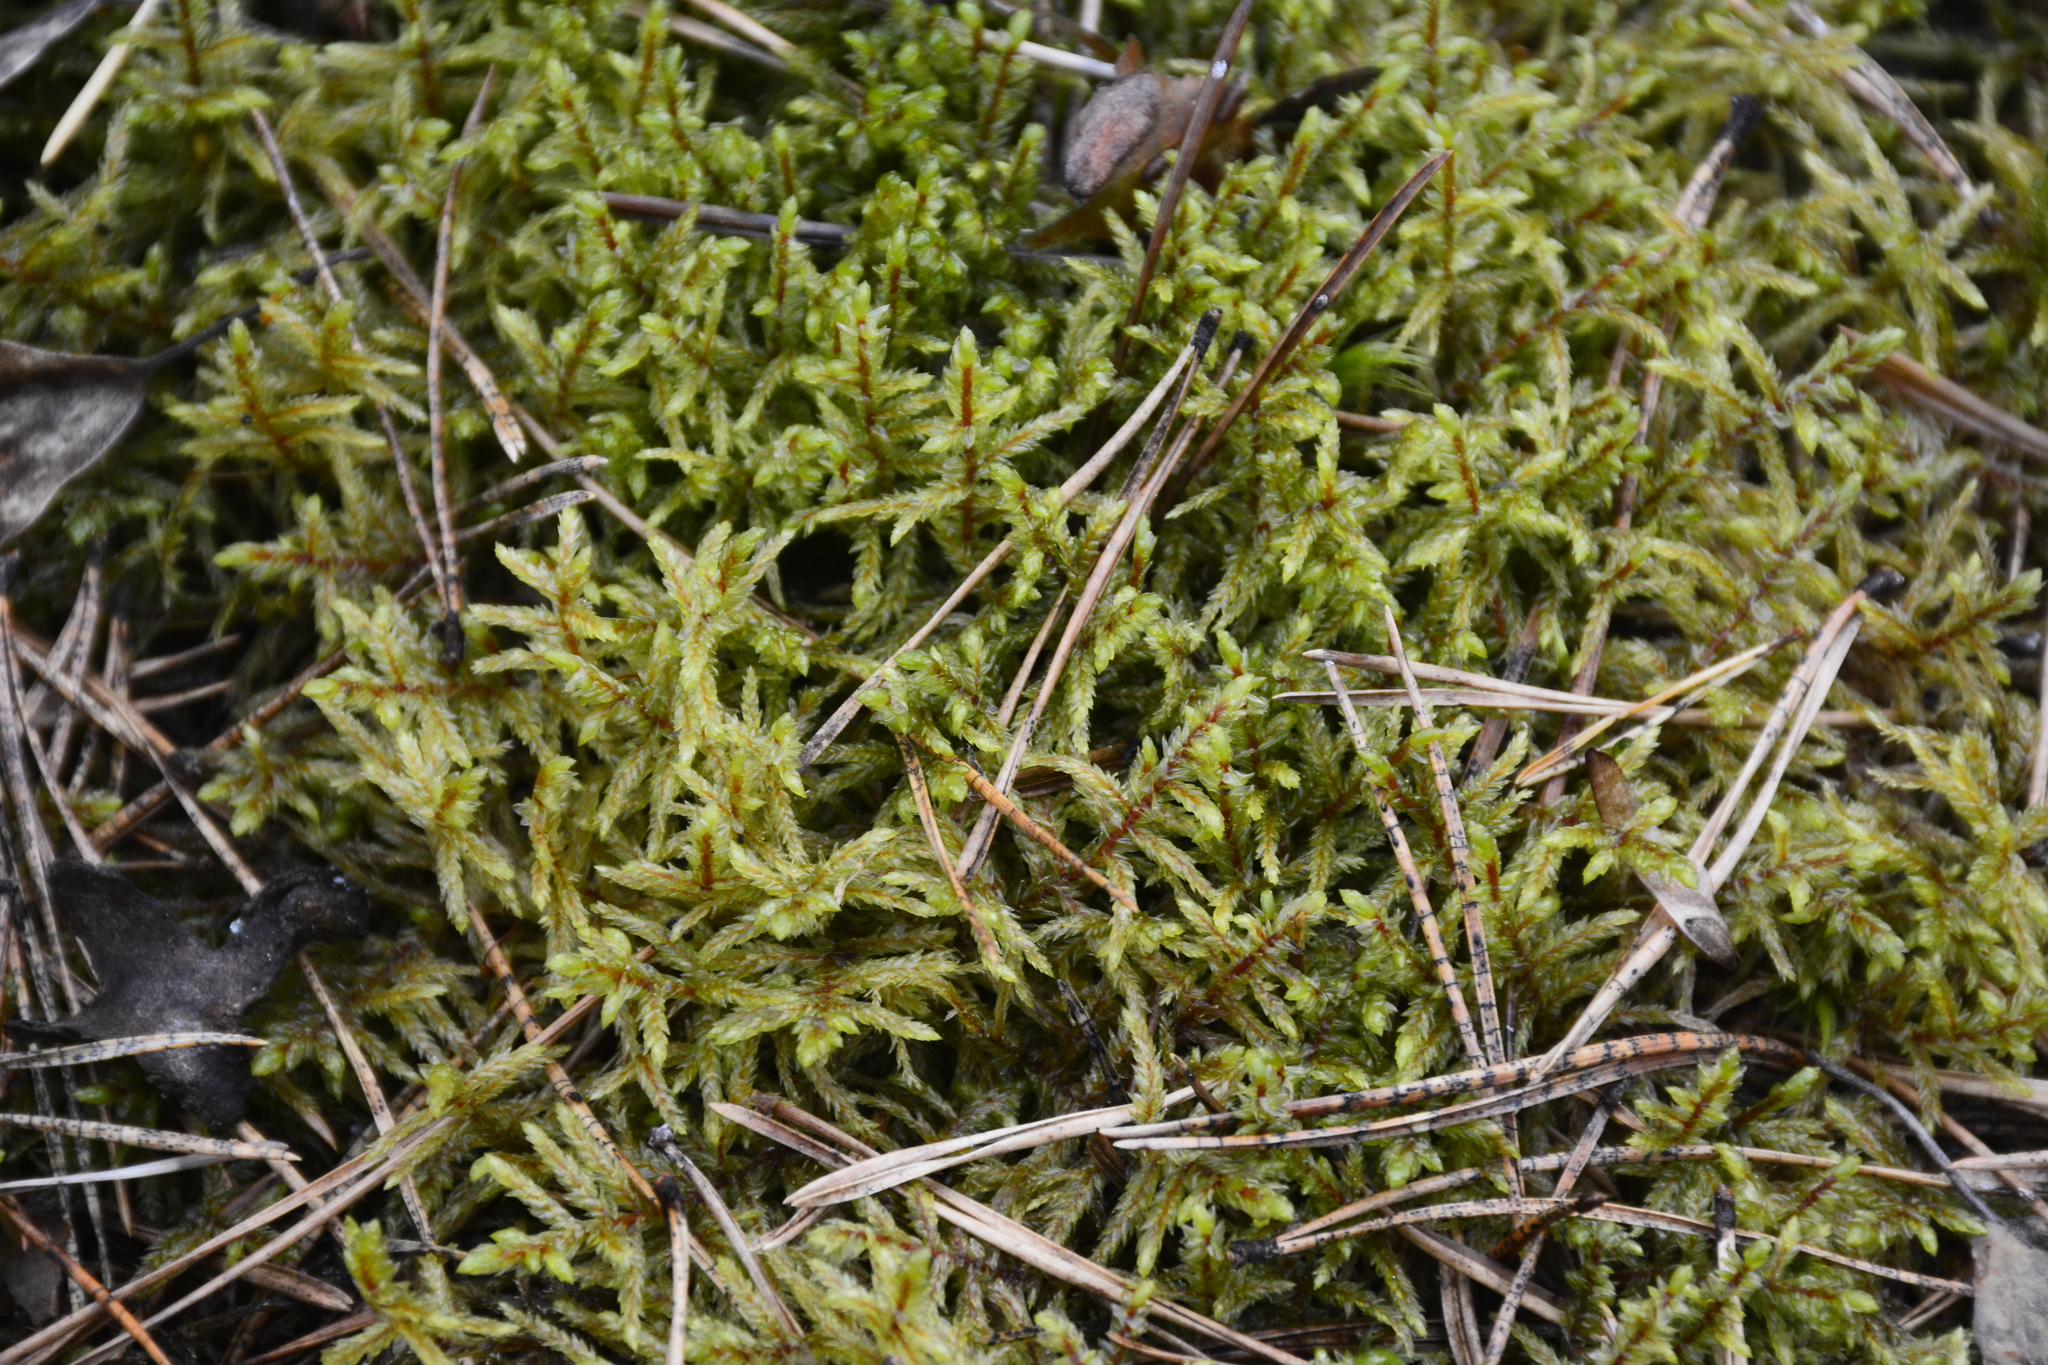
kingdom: Plantae
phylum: Bryophyta
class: Bryopsida
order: Hypnales
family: Hylocomiaceae
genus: Pleurozium
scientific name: Pleurozium schreberi
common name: Red-stemmed feather moss
